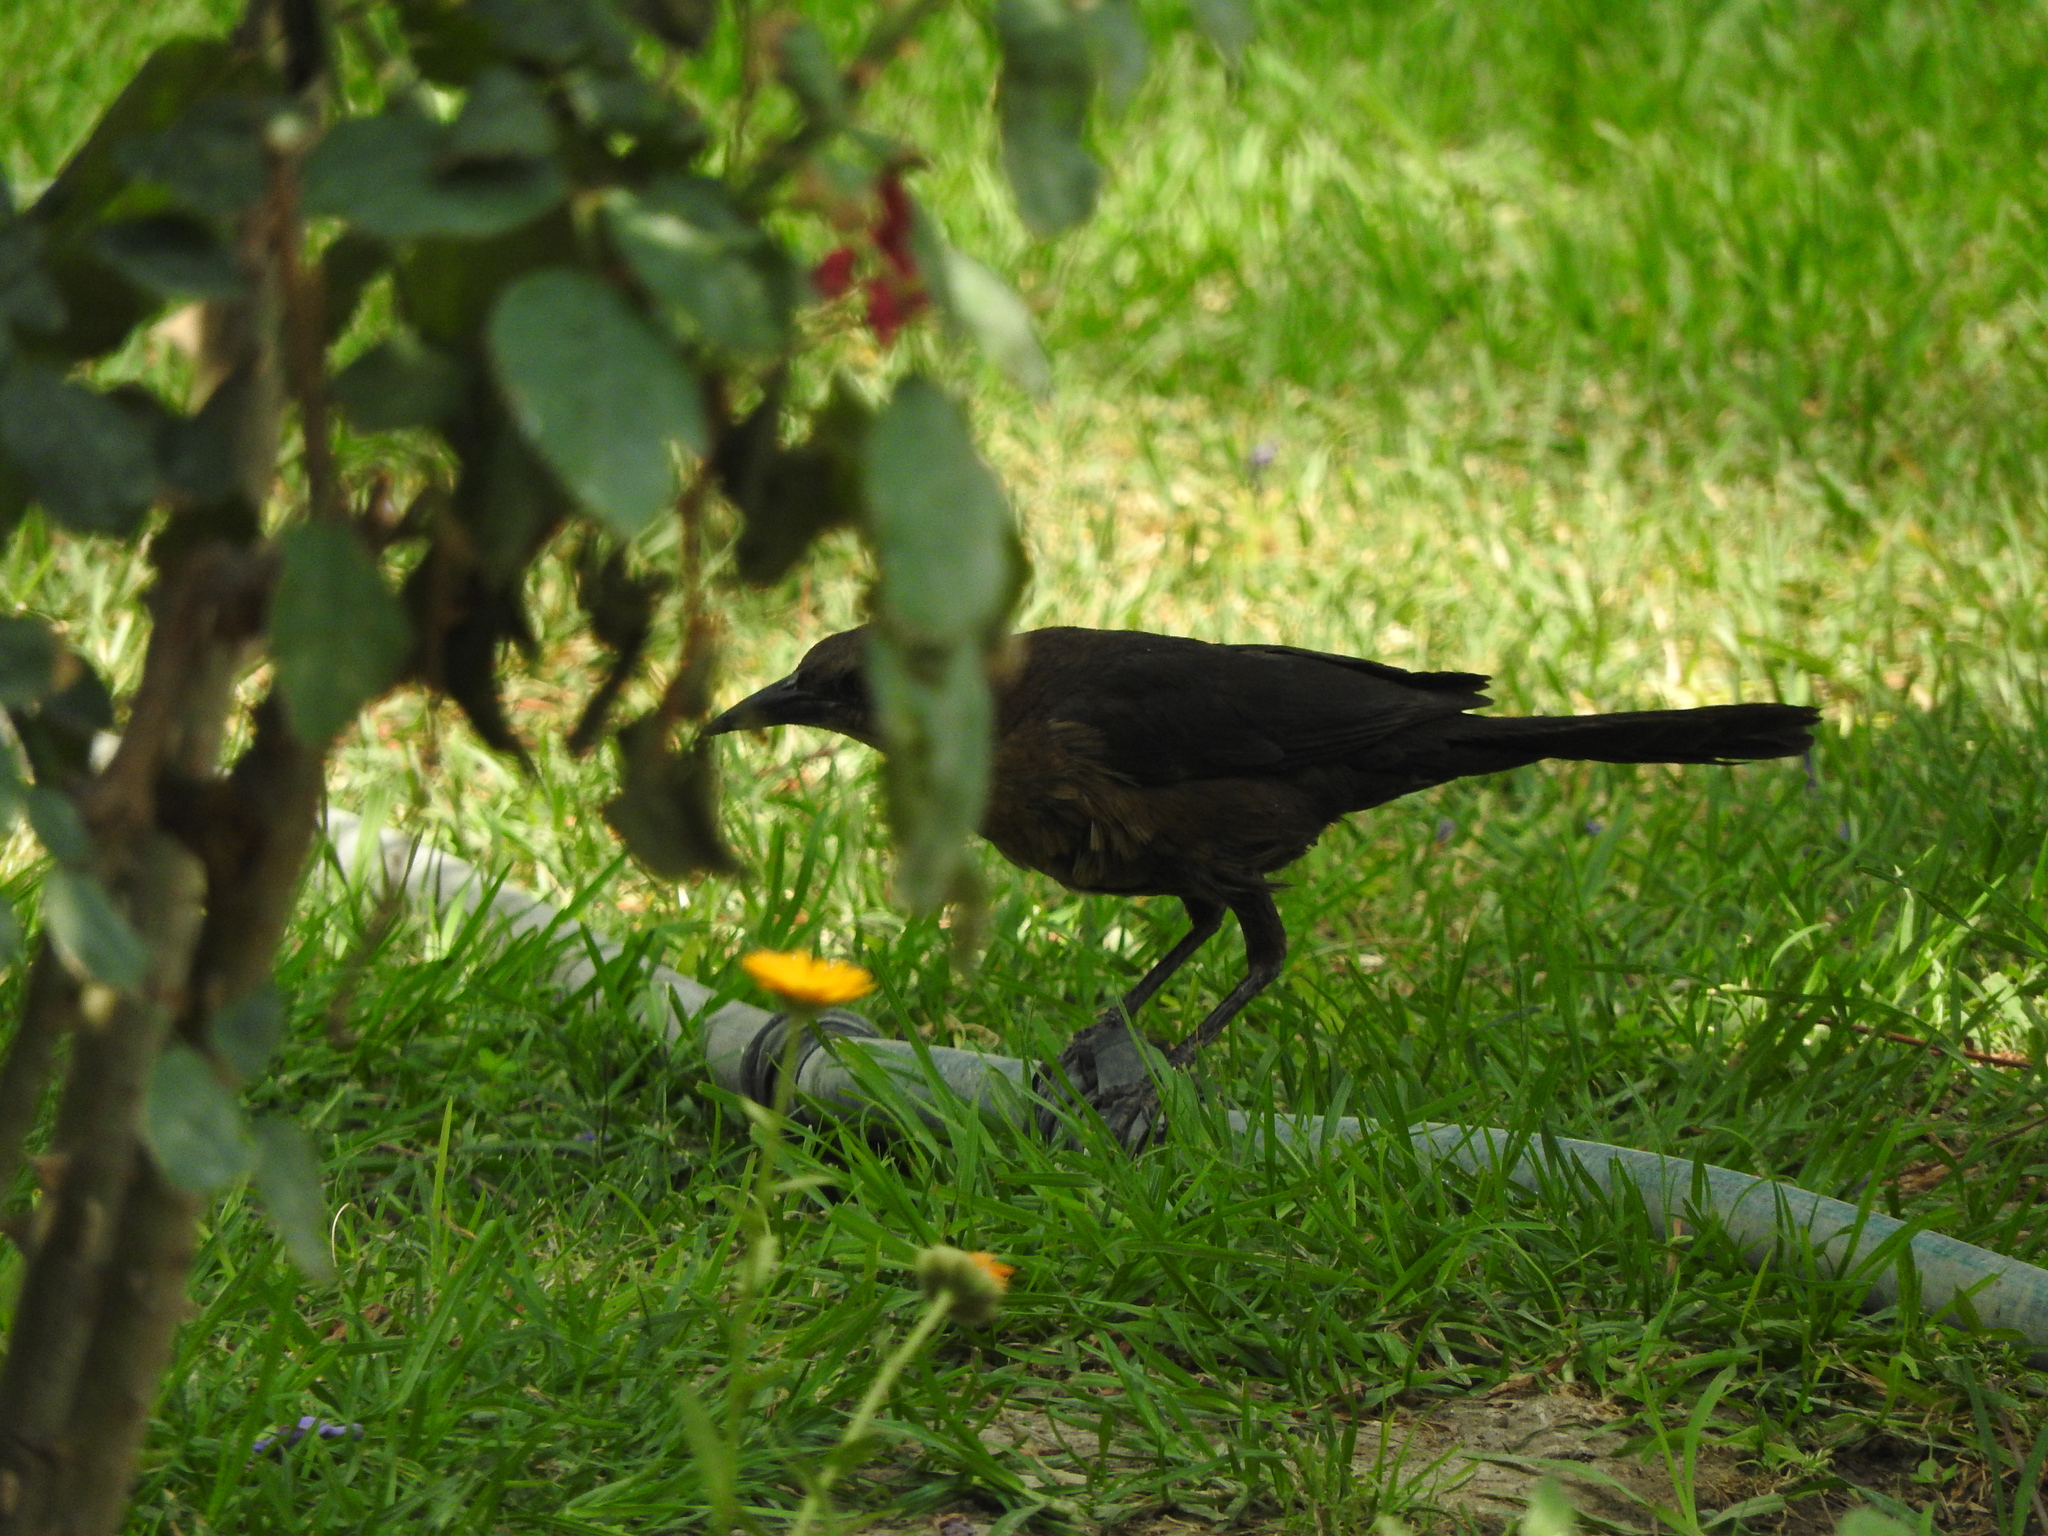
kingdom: Animalia
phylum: Chordata
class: Aves
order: Passeriformes
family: Icteridae
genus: Quiscalus
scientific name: Quiscalus mexicanus
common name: Great-tailed grackle
